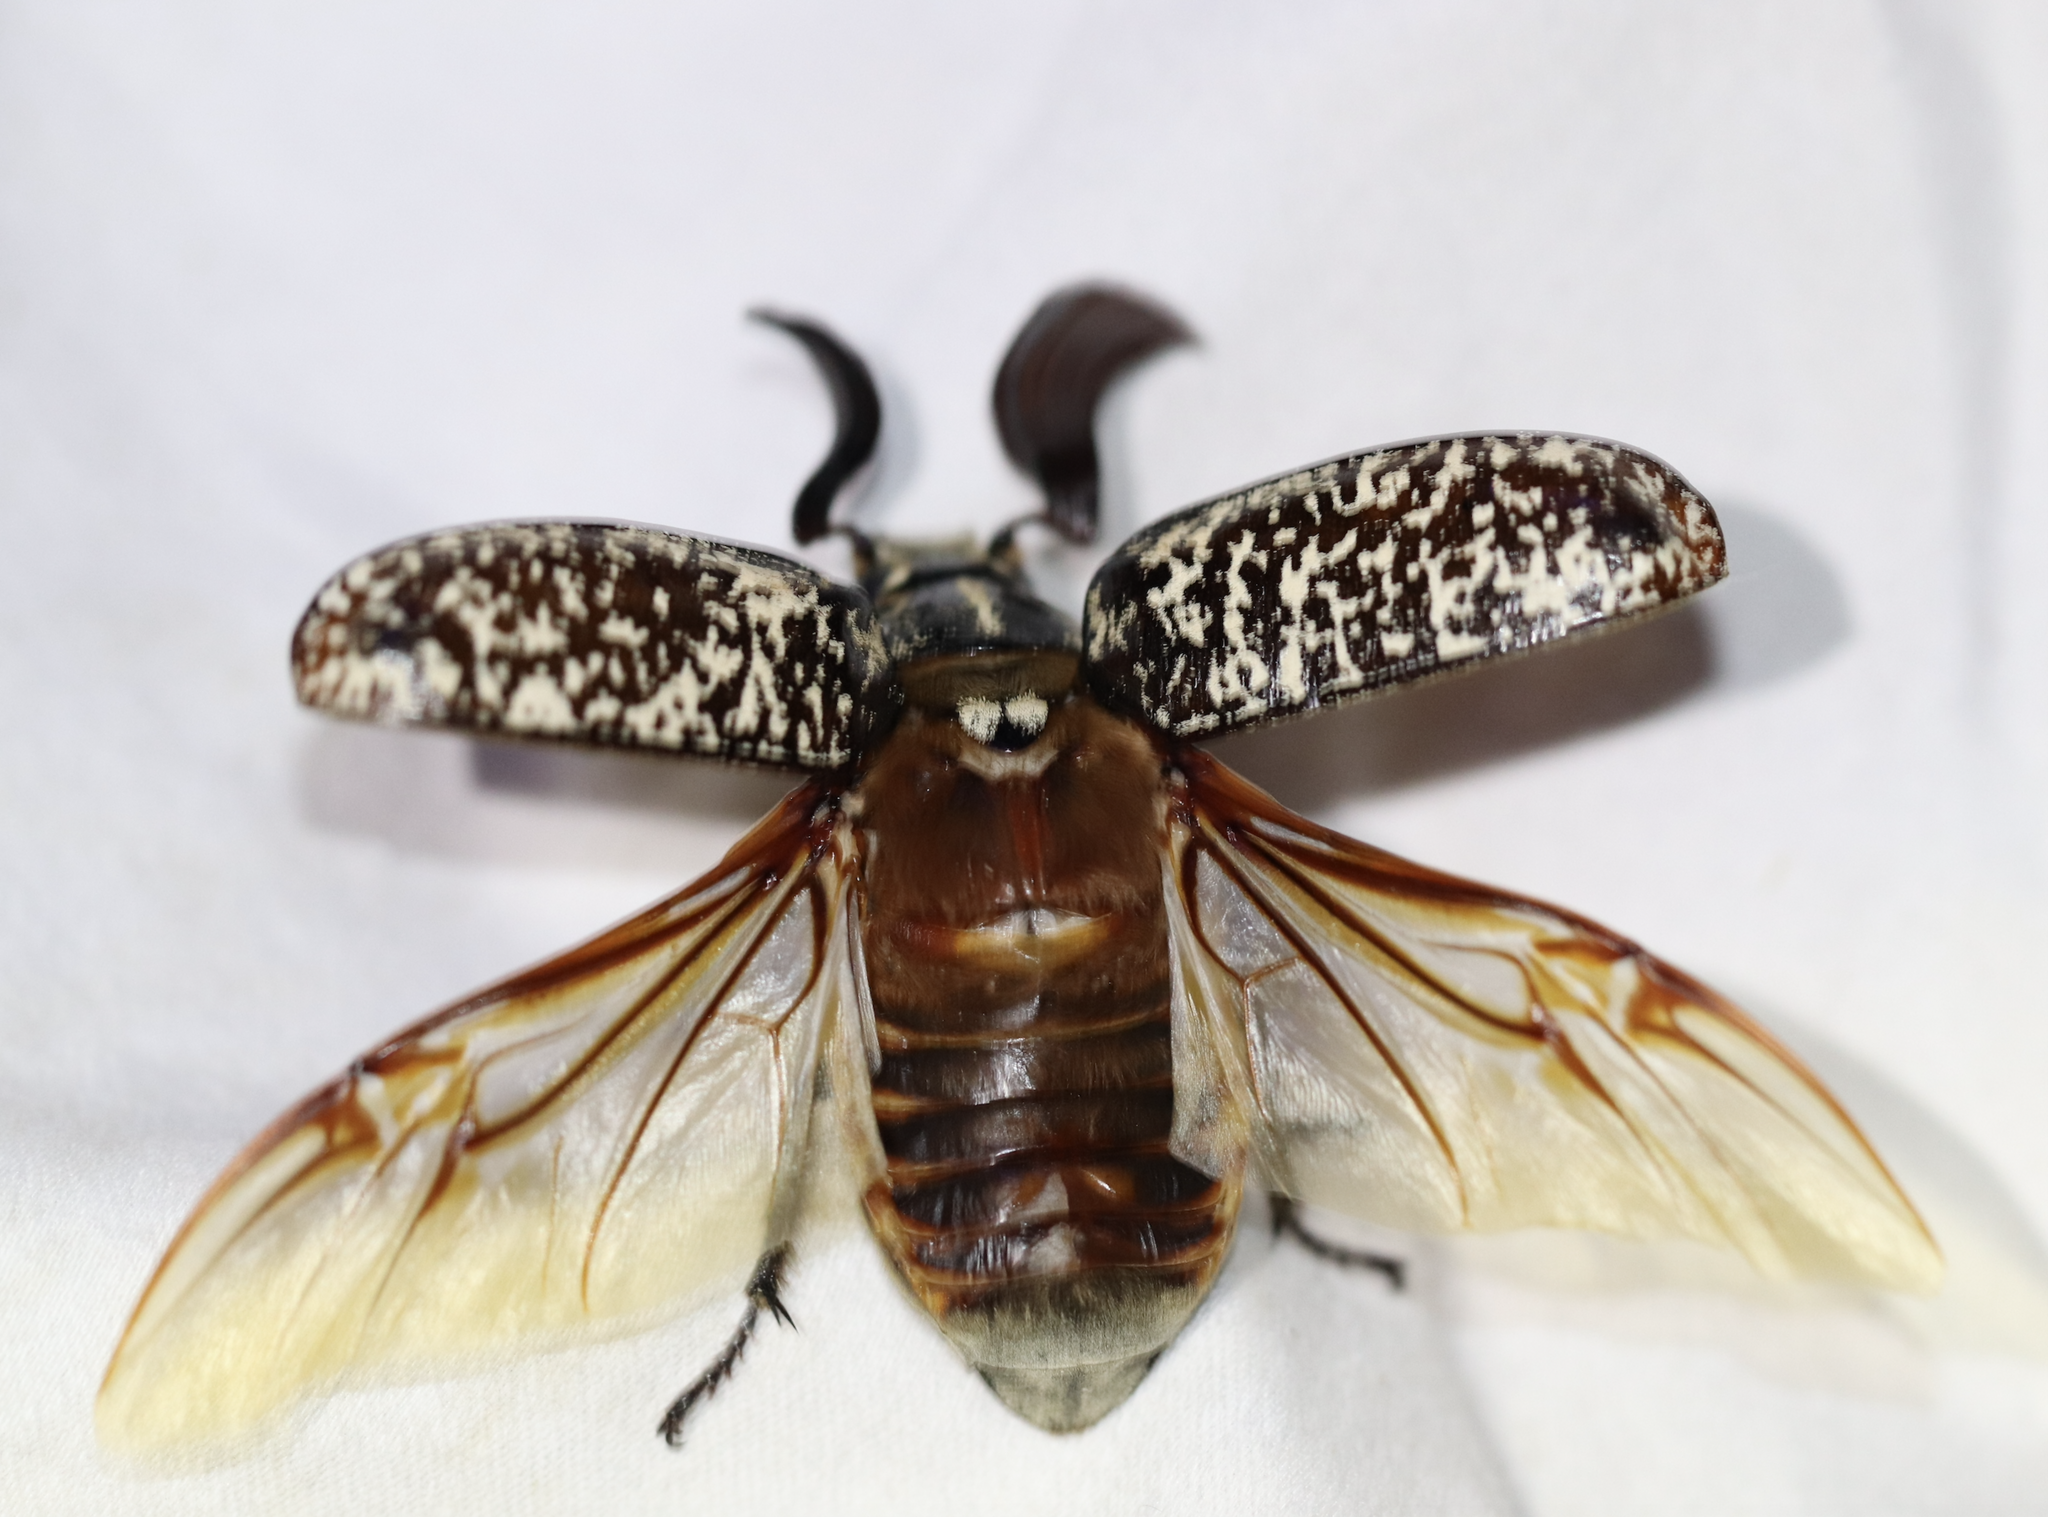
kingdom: Animalia
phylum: Arthropoda
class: Insecta
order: Coleoptera
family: Scarabaeidae
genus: Polyphylla
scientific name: Polyphylla fullo
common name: Pine chafer
